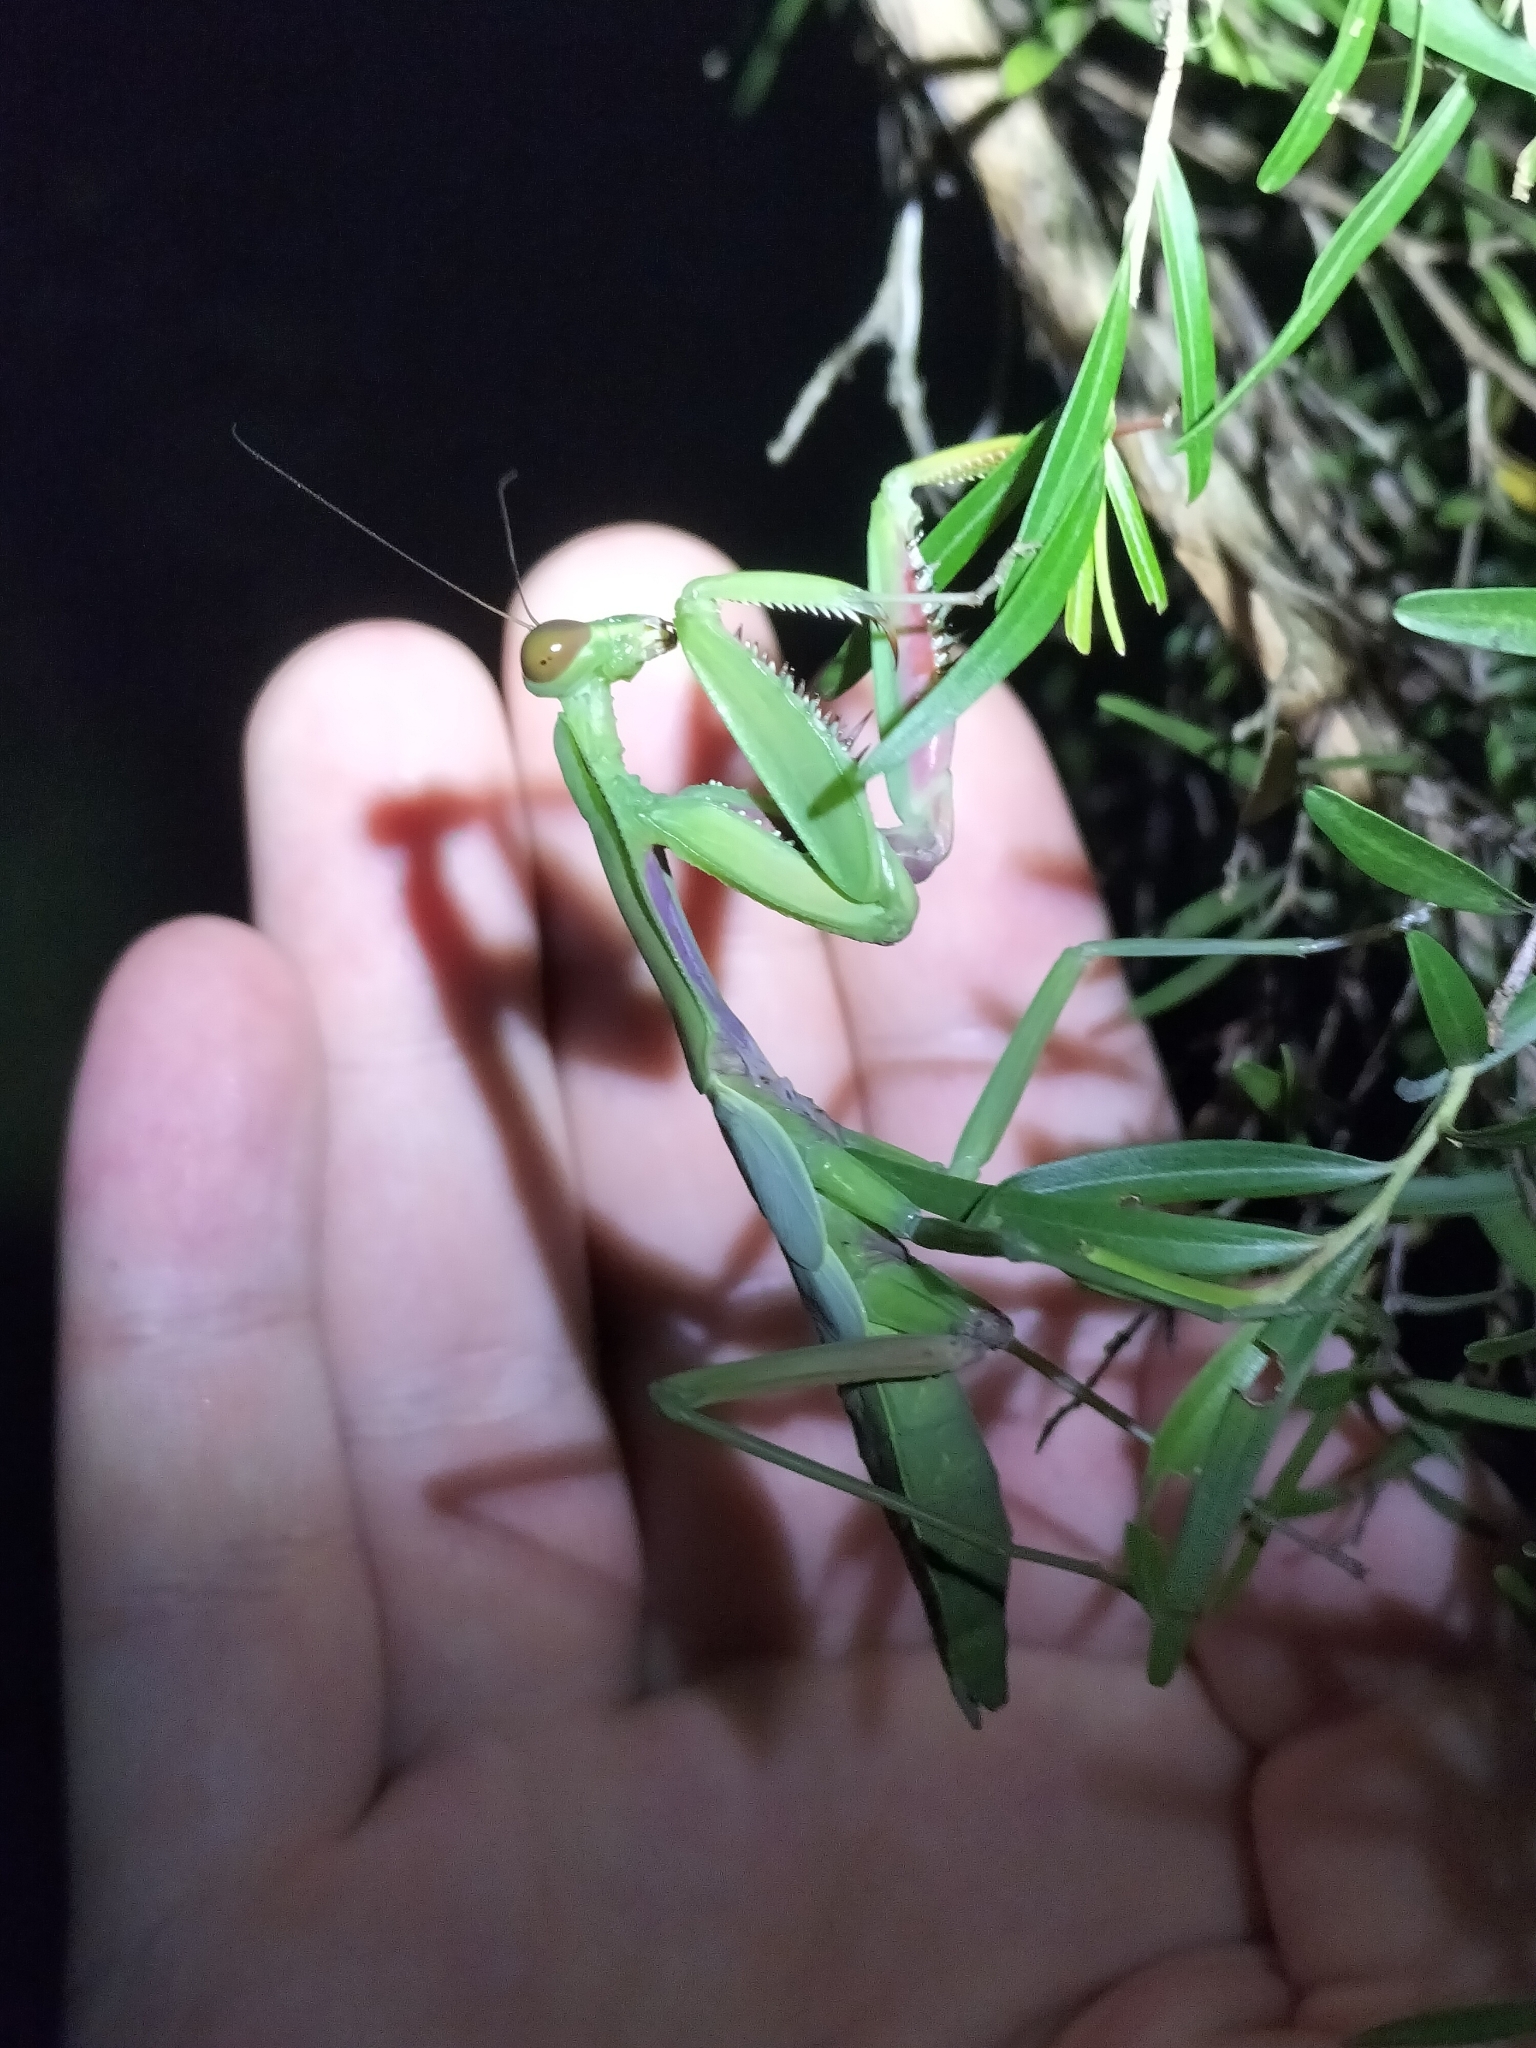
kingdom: Animalia
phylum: Arthropoda
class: Insecta
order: Mantodea
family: Mantidae
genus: Hierodula
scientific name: Hierodula majuscula
